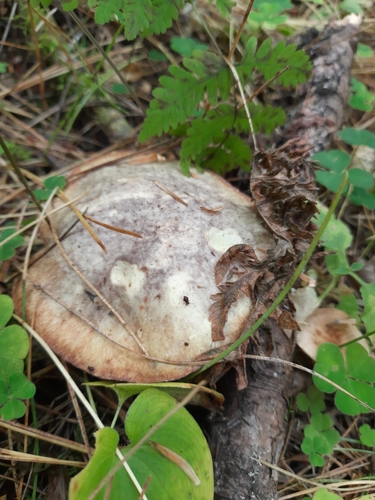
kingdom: Fungi
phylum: Basidiomycota
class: Agaricomycetes
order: Boletales
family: Suillaceae
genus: Suillus
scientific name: Suillus placidus
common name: Slippery white bolete
